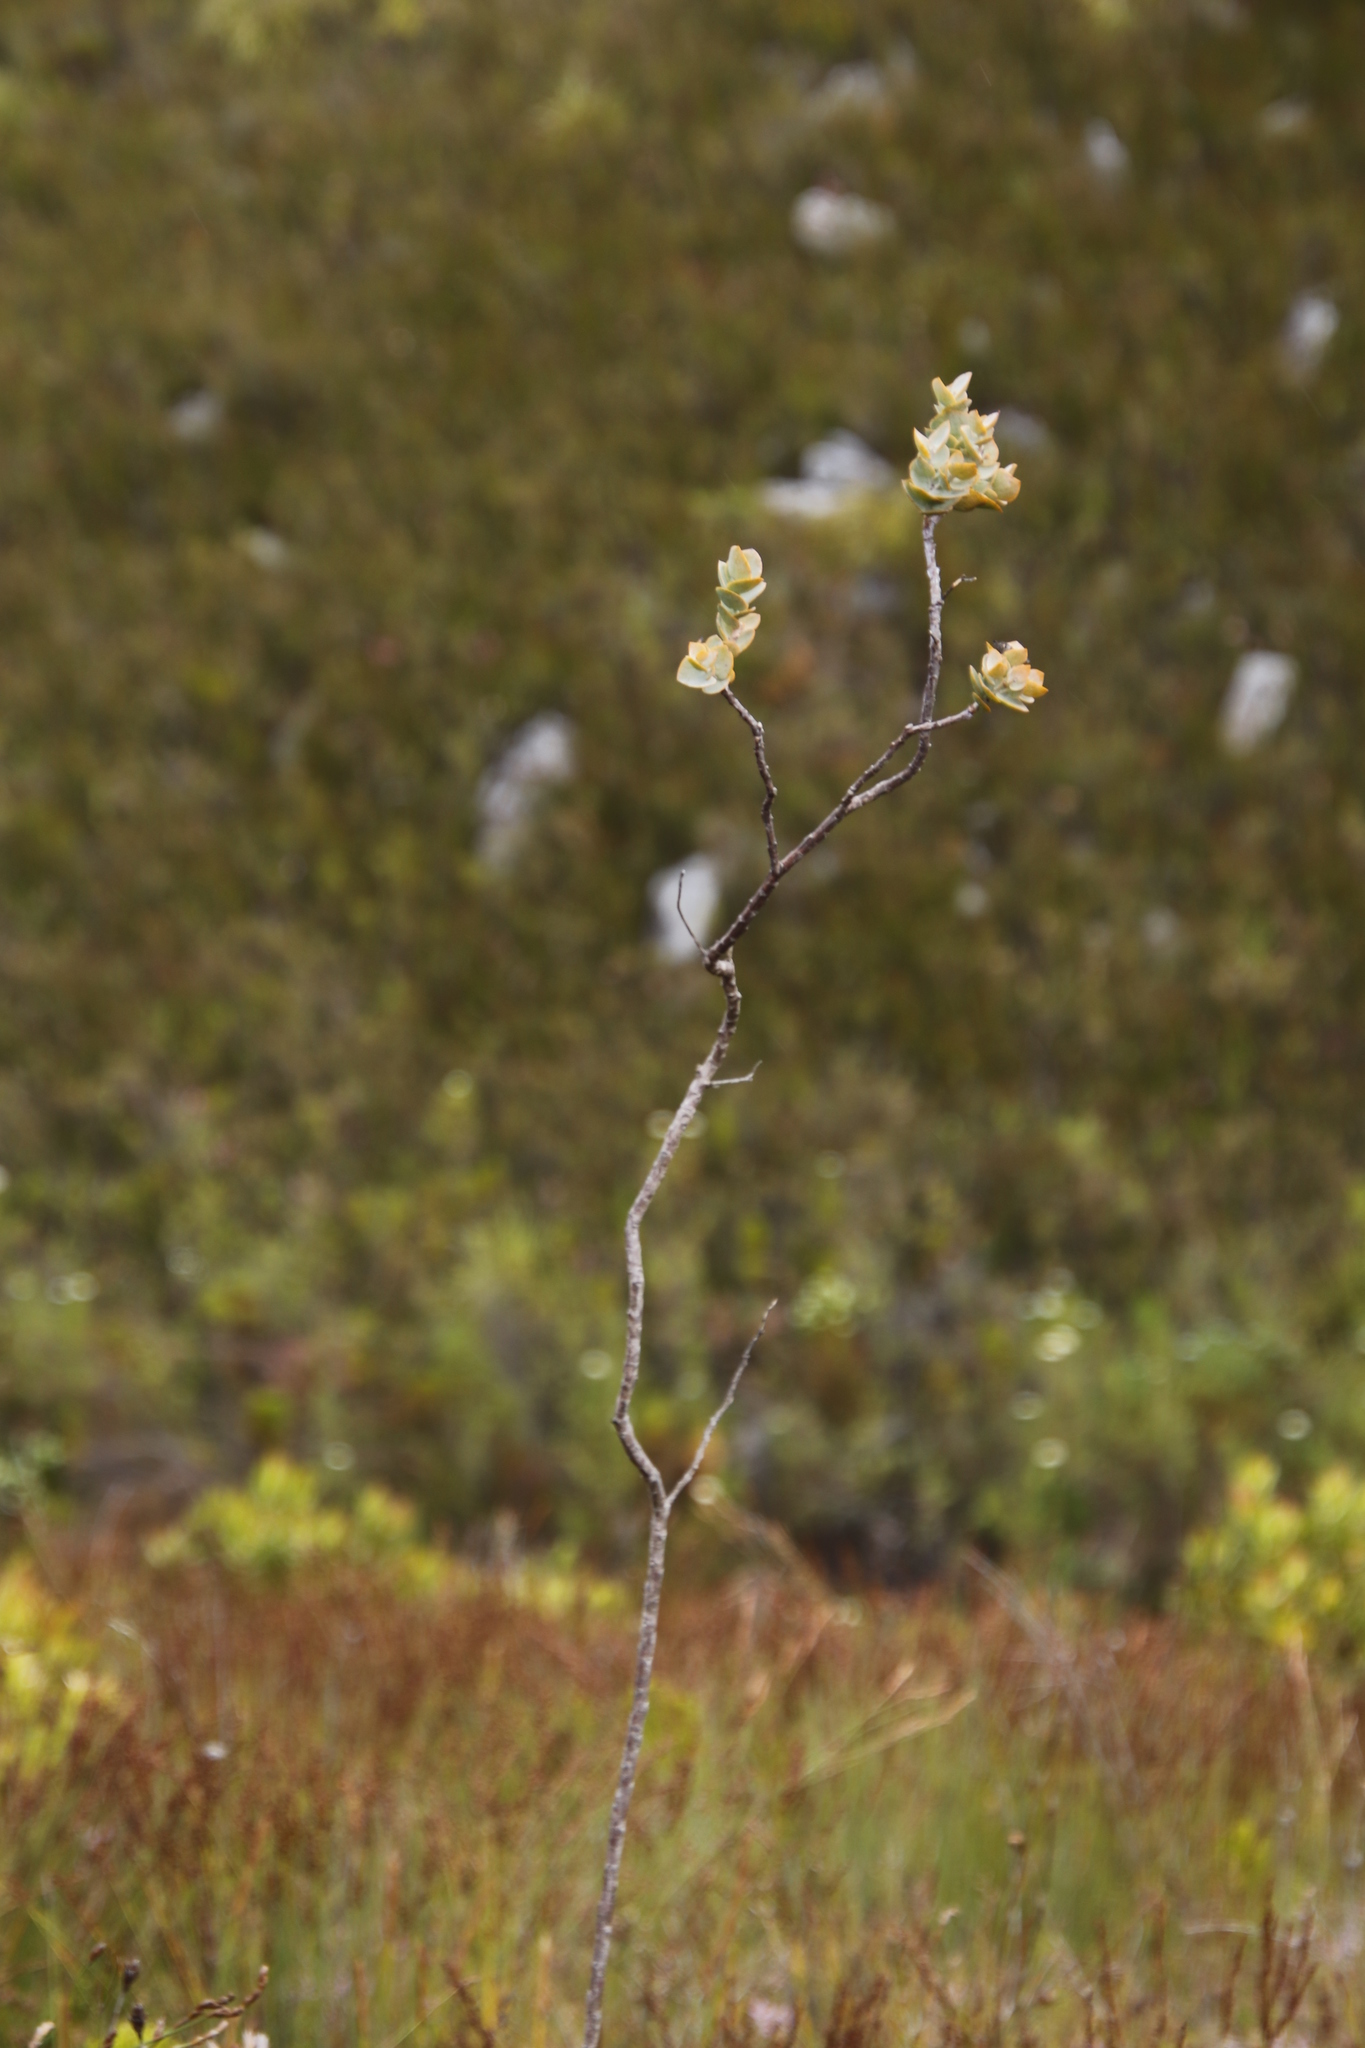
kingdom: Plantae
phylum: Tracheophyta
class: Magnoliopsida
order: Santalales
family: Thesiaceae
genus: Thesium
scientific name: Thesium euphorbioides
